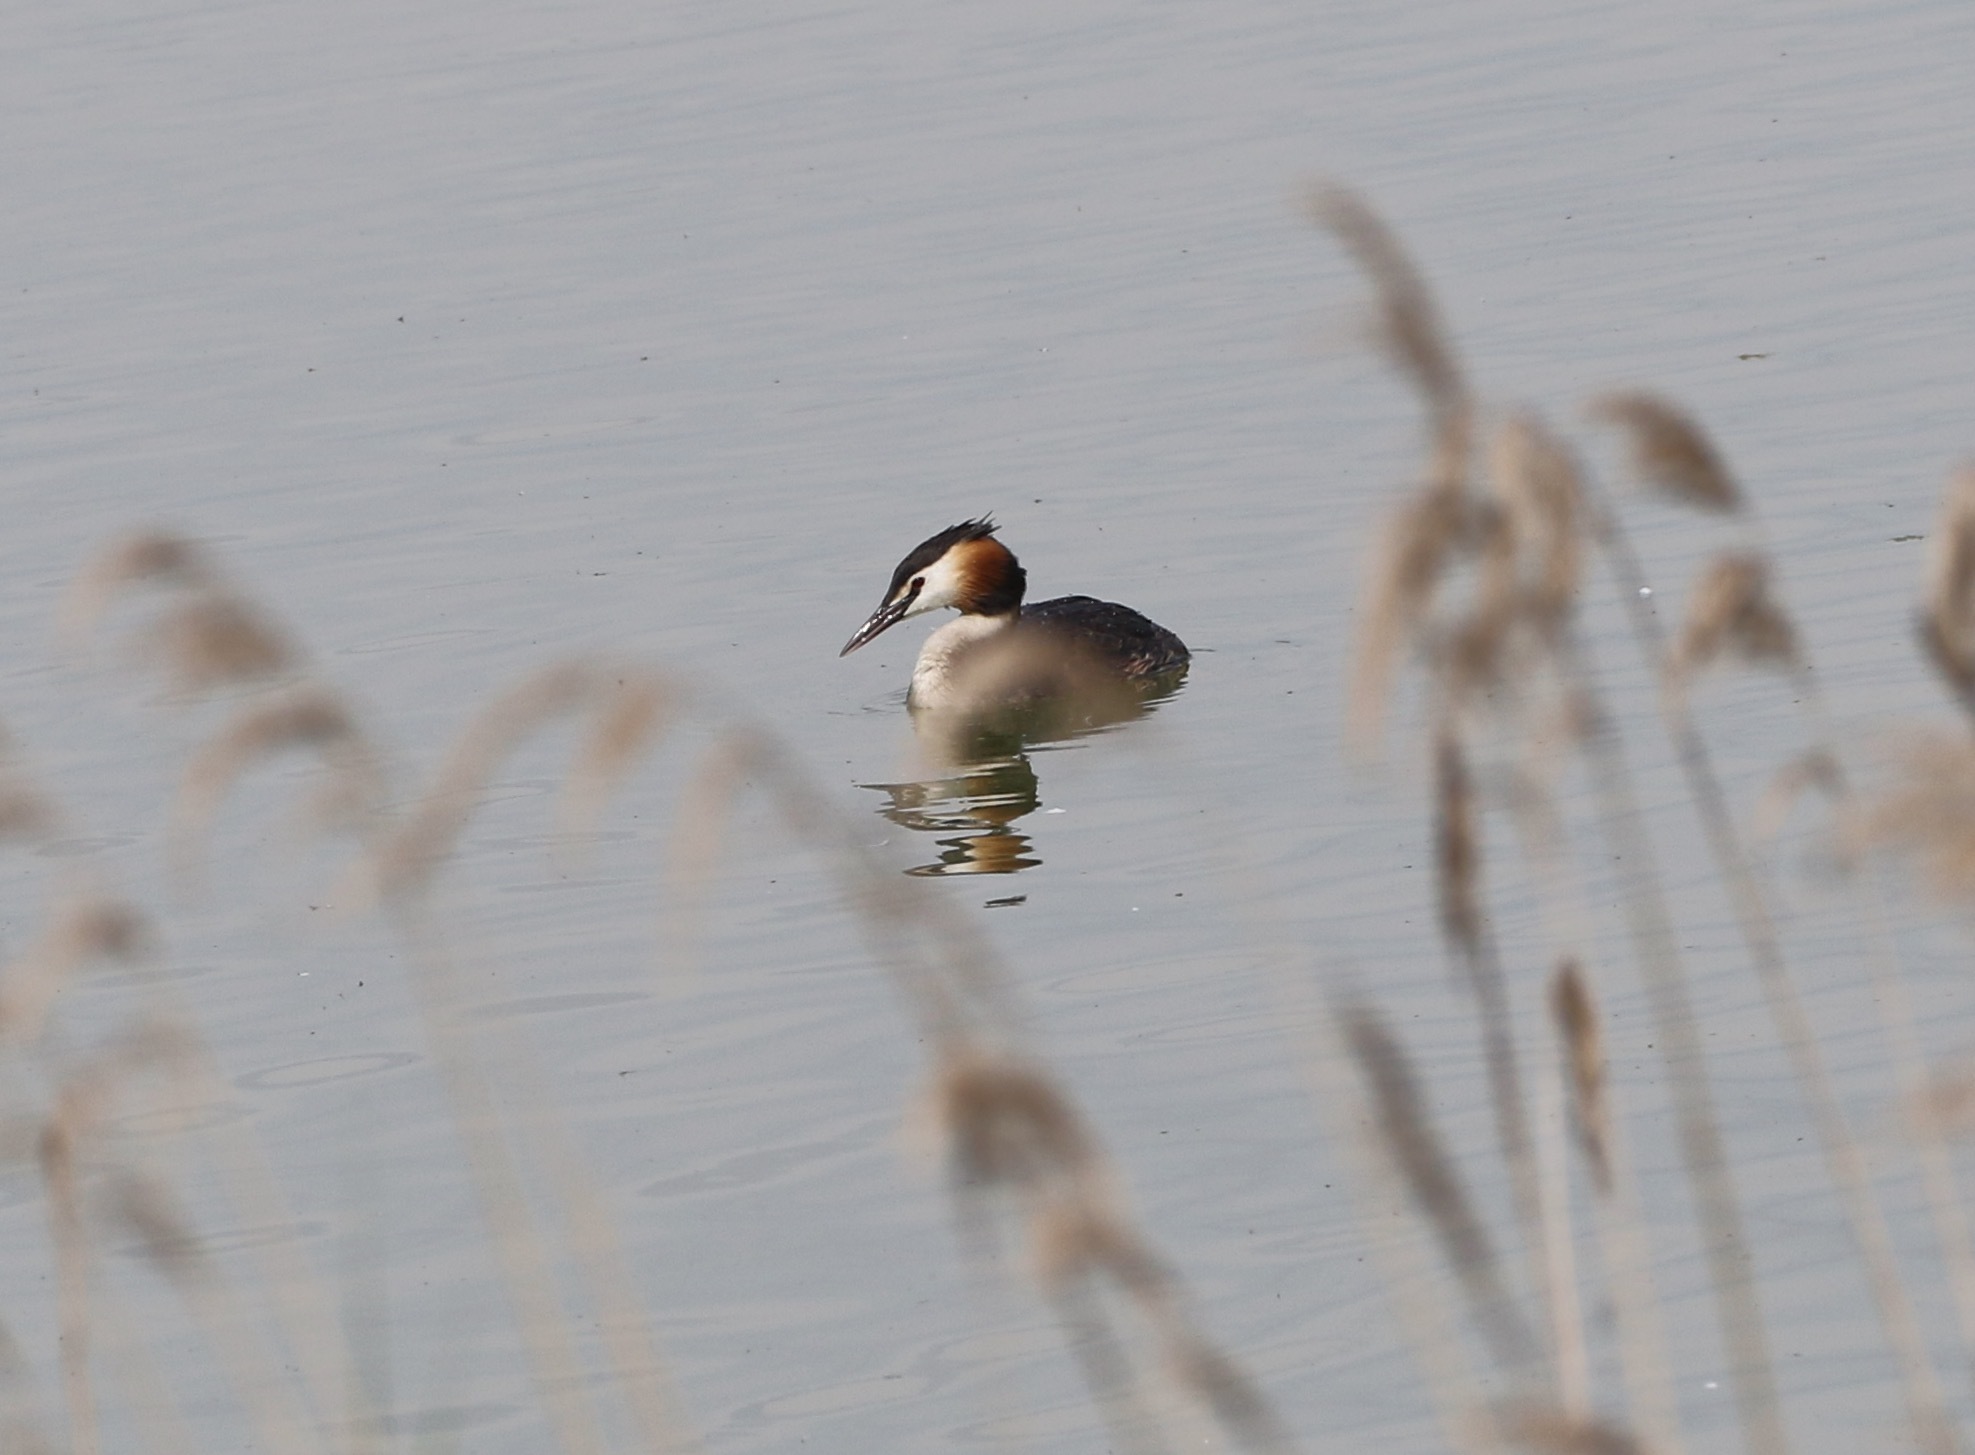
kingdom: Animalia
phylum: Chordata
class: Aves
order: Podicipediformes
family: Podicipedidae
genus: Podiceps
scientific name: Podiceps cristatus
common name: Great crested grebe
